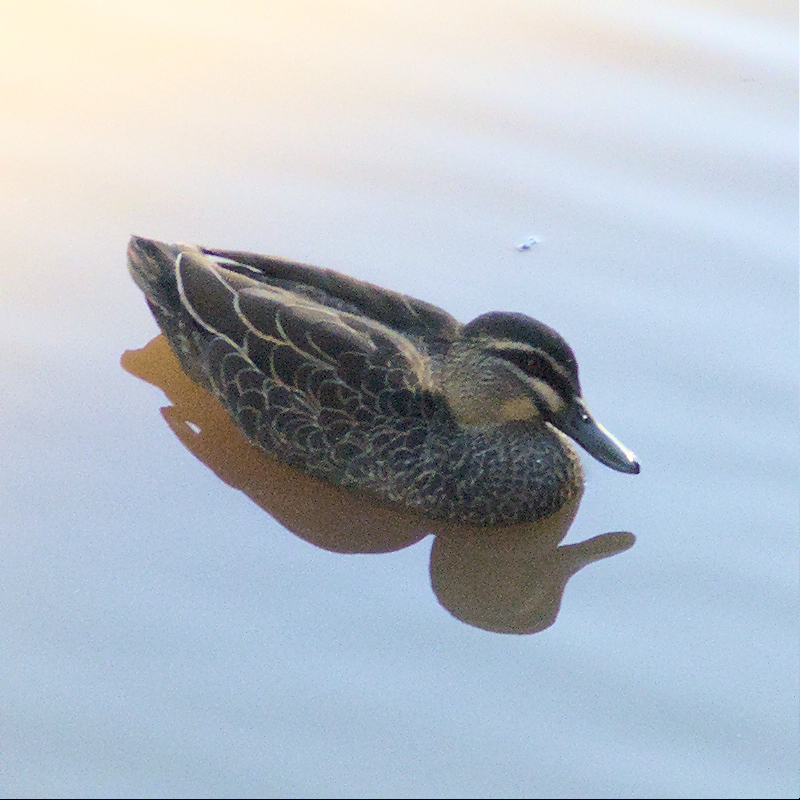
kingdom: Animalia
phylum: Chordata
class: Aves
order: Anseriformes
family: Anatidae
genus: Anas
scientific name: Anas superciliosa
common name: Pacific black duck
